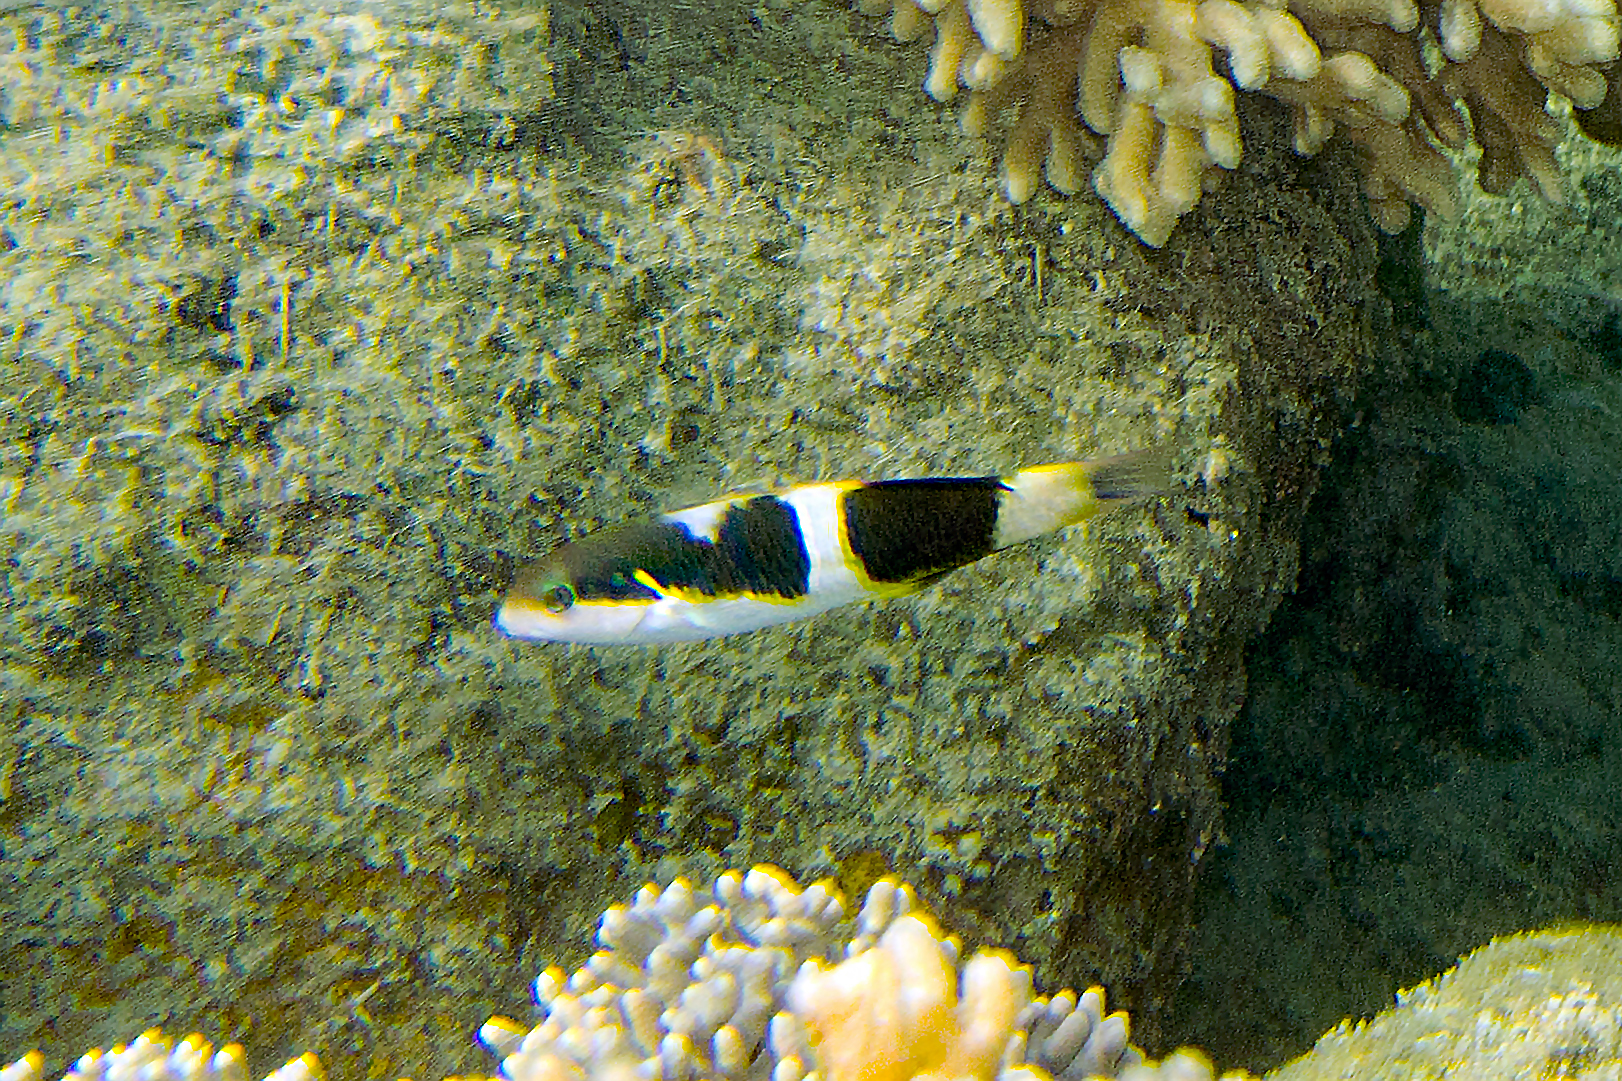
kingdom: Animalia
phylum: Chordata
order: Perciformes
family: Labridae
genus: Thalassoma
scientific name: Thalassoma nigrofasciatum
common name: Black-barred wrasse
